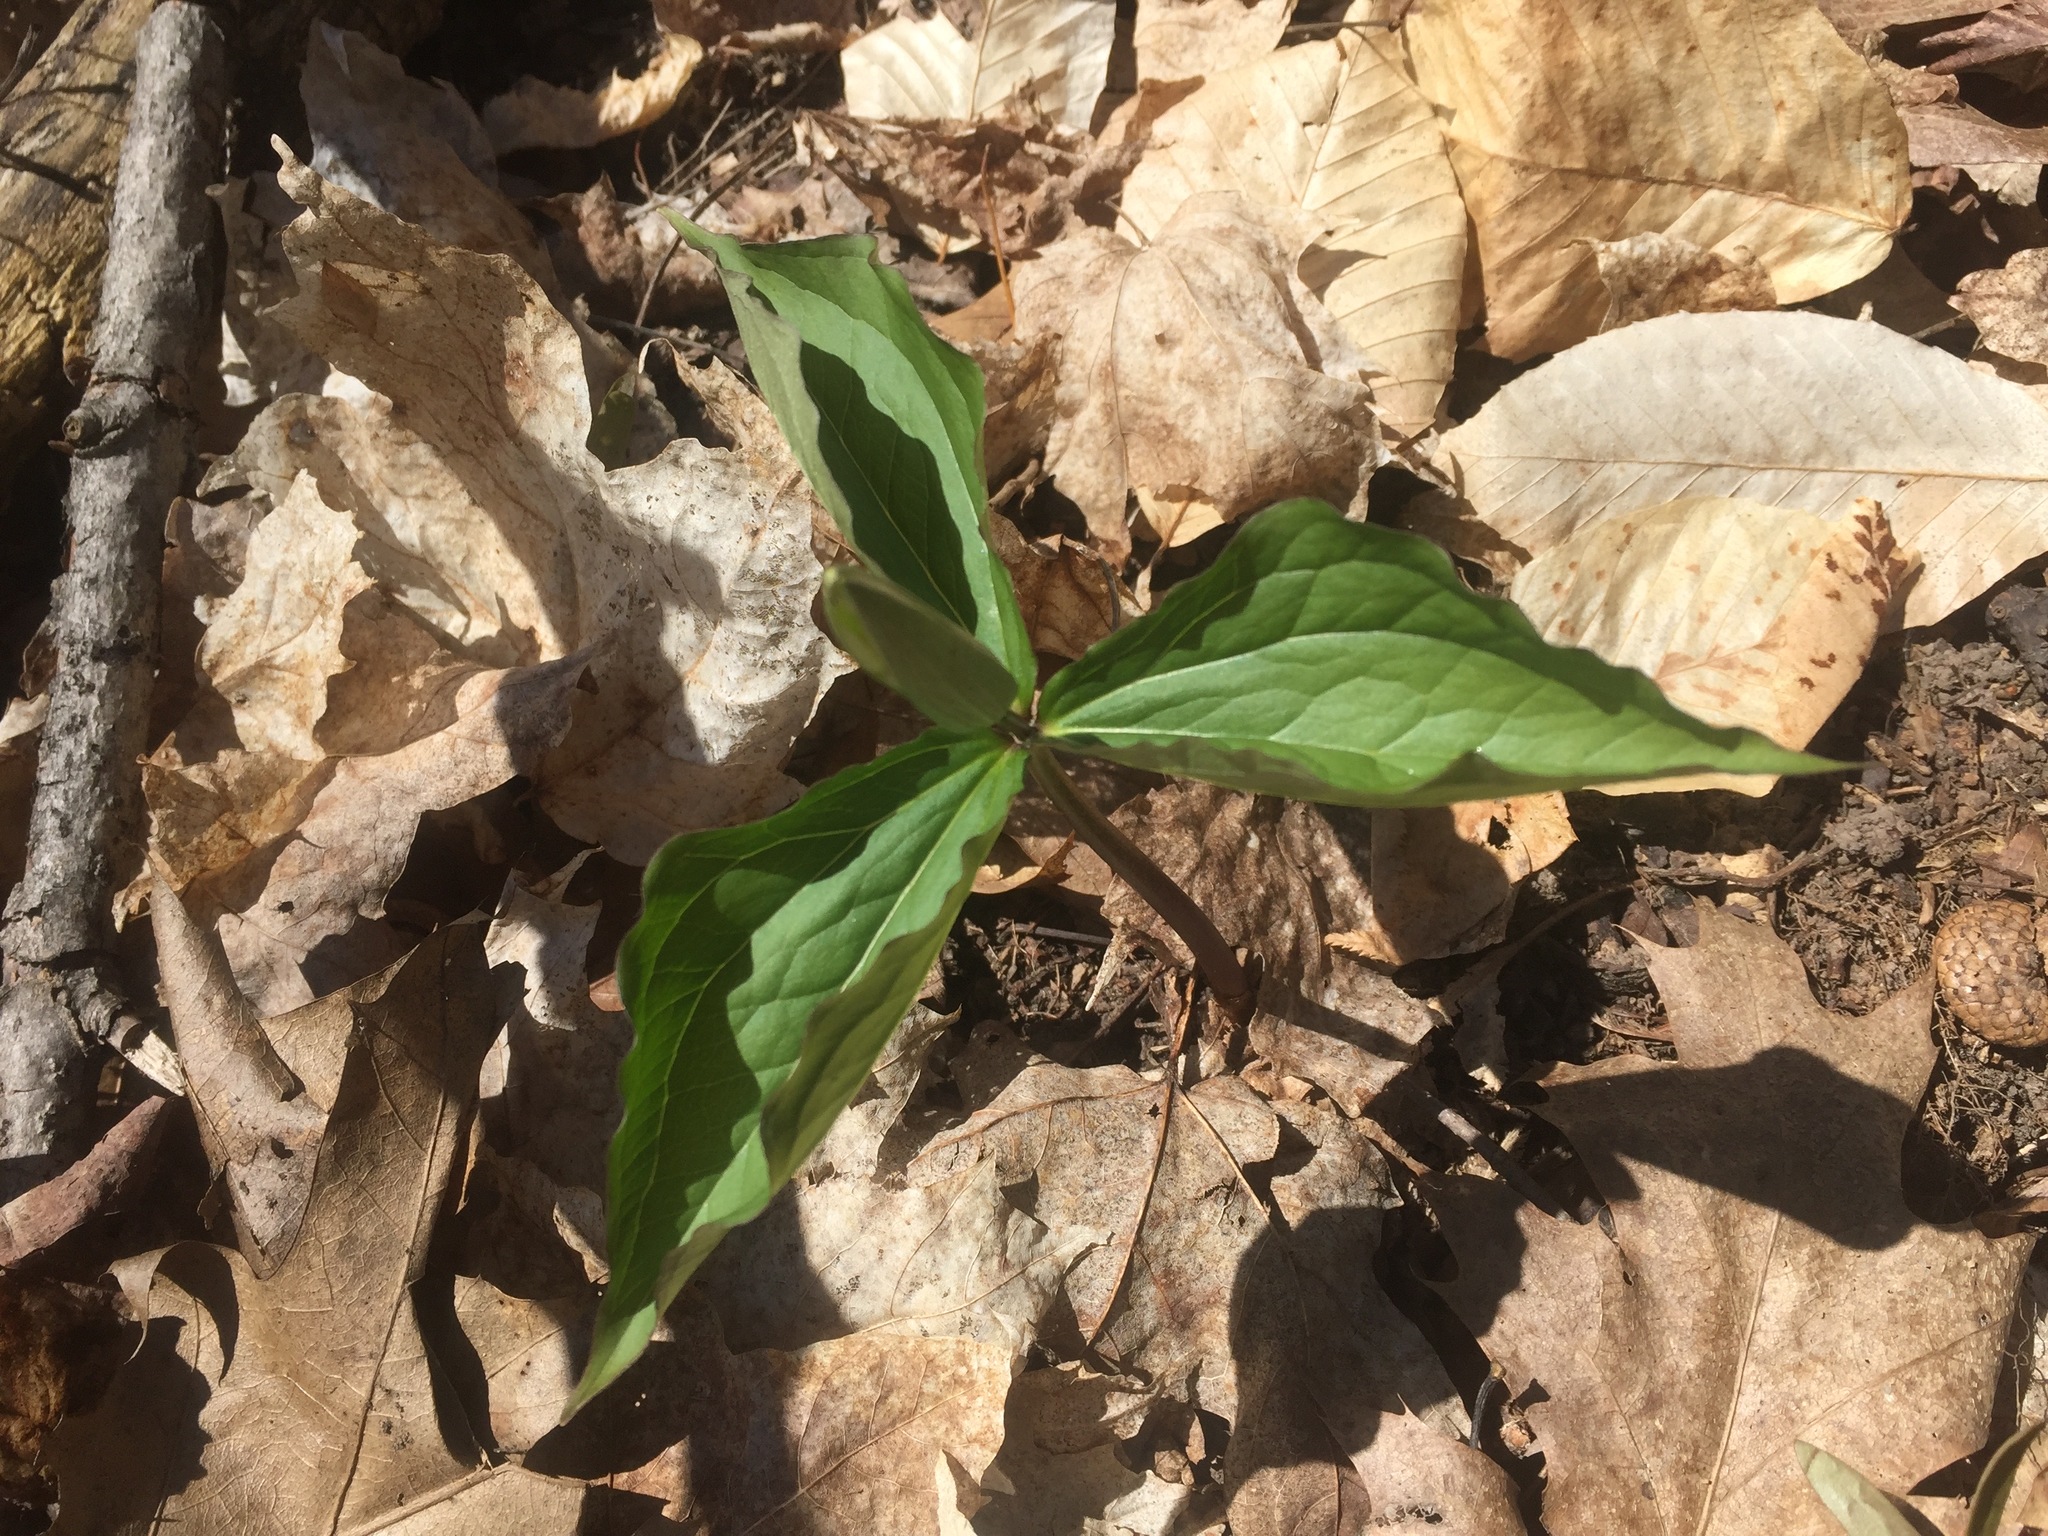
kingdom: Plantae
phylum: Tracheophyta
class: Liliopsida
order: Liliales
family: Melanthiaceae
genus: Trillium
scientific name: Trillium grandiflorum
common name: Great white trillium
